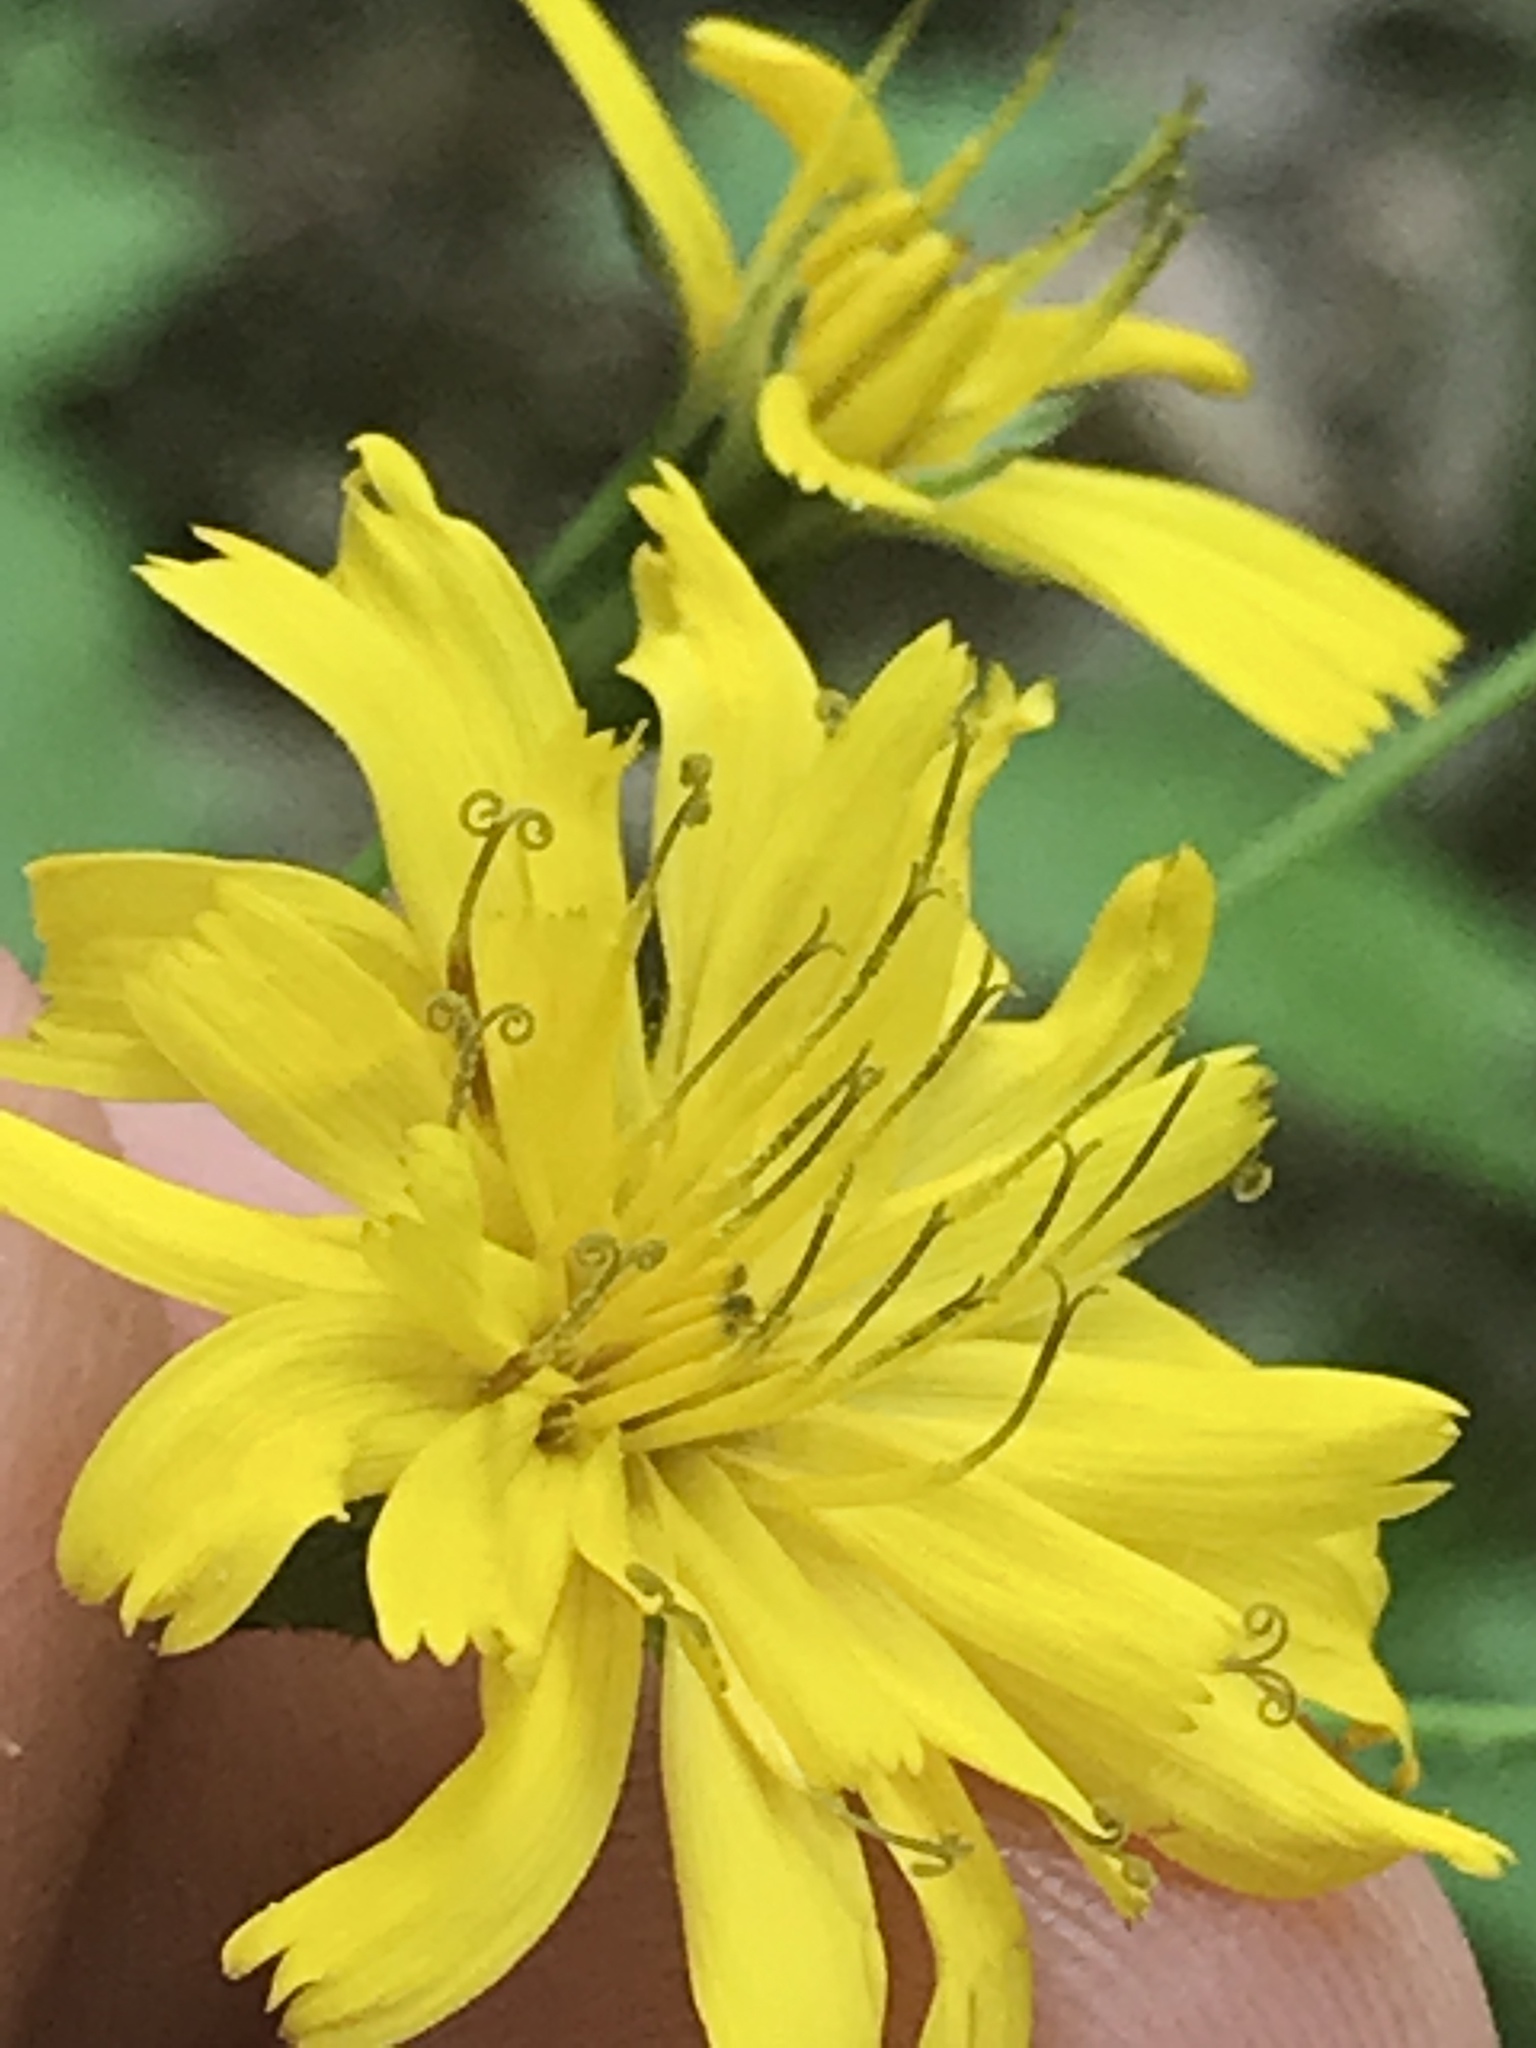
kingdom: Plantae
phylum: Tracheophyta
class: Magnoliopsida
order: Asterales
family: Asteraceae
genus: Hieracium
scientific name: Hieracium venosum
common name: Rattlesnake hawkweed
